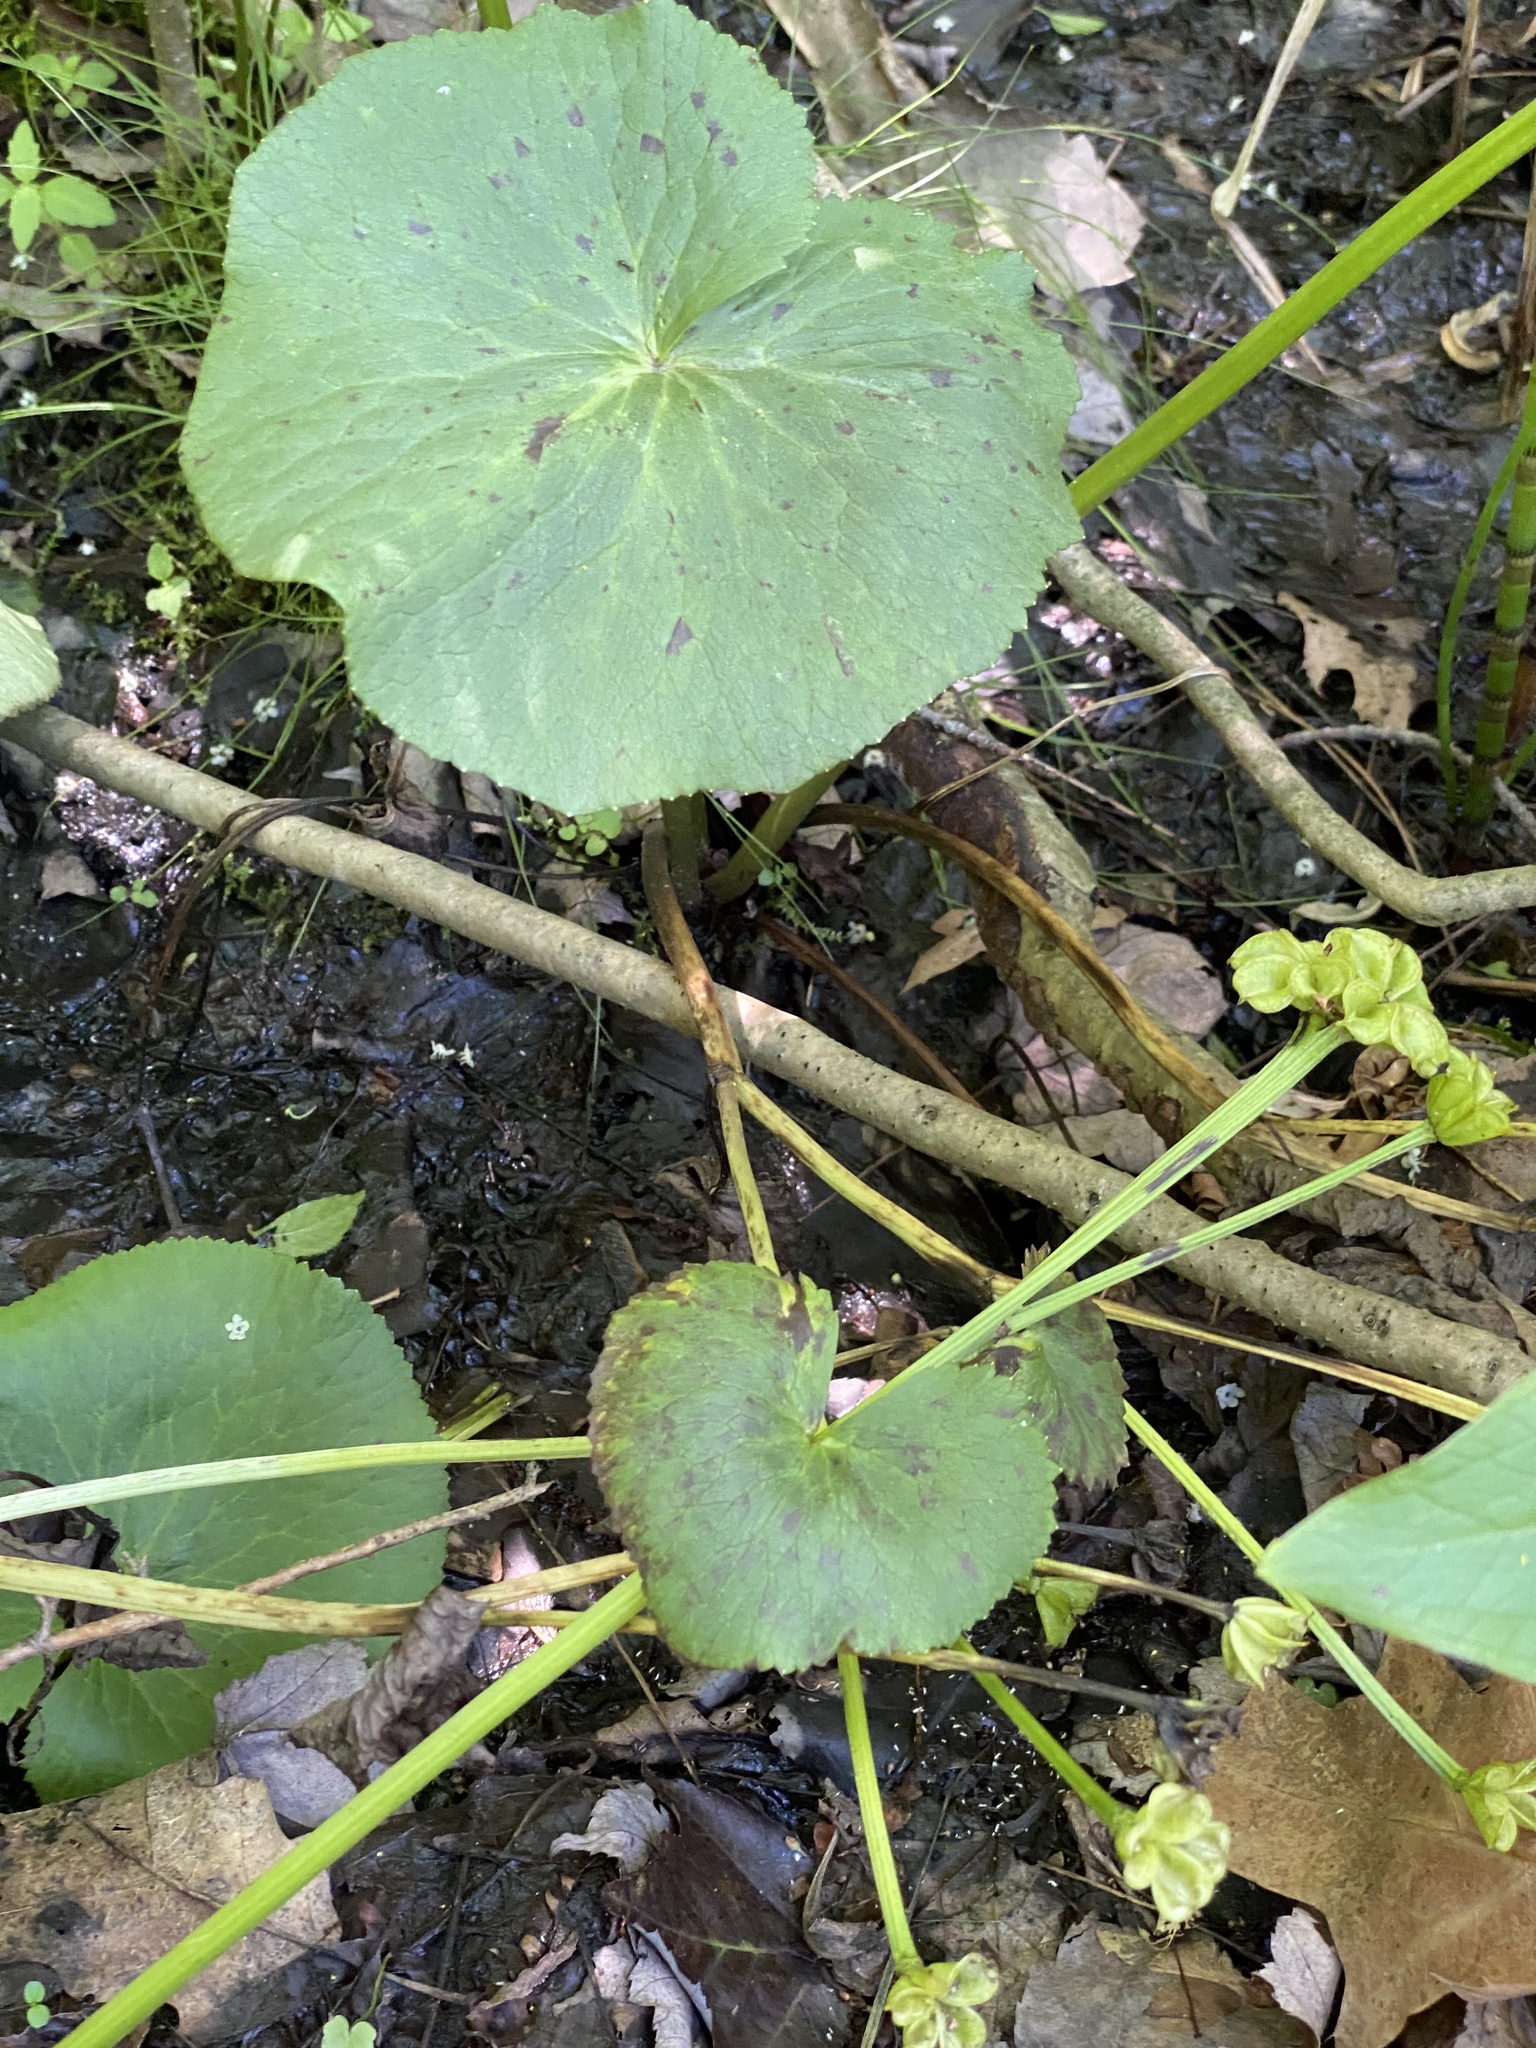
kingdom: Plantae
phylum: Tracheophyta
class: Magnoliopsida
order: Ranunculales
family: Ranunculaceae
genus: Caltha
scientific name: Caltha palustris
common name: Marsh marigold
